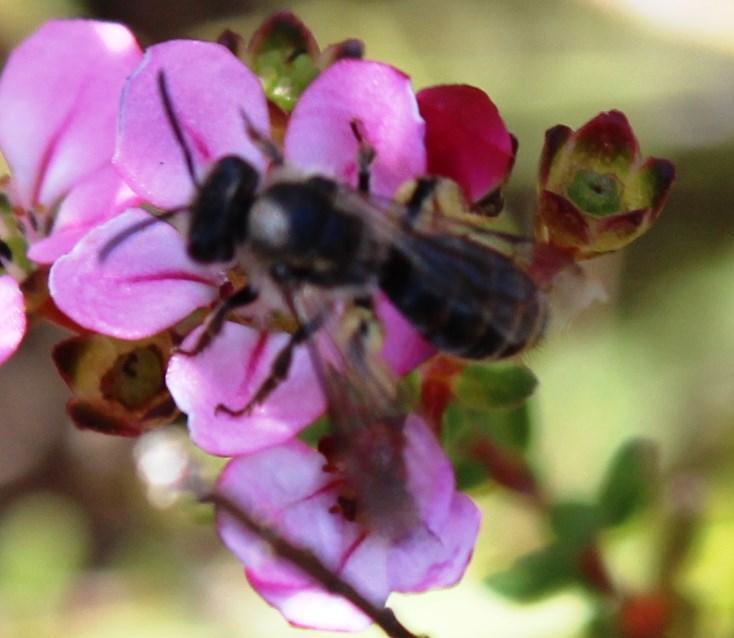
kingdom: Plantae
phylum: Tracheophyta
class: Magnoliopsida
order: Sapindales
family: Rutaceae
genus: Adenandra
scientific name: Adenandra multiflora
